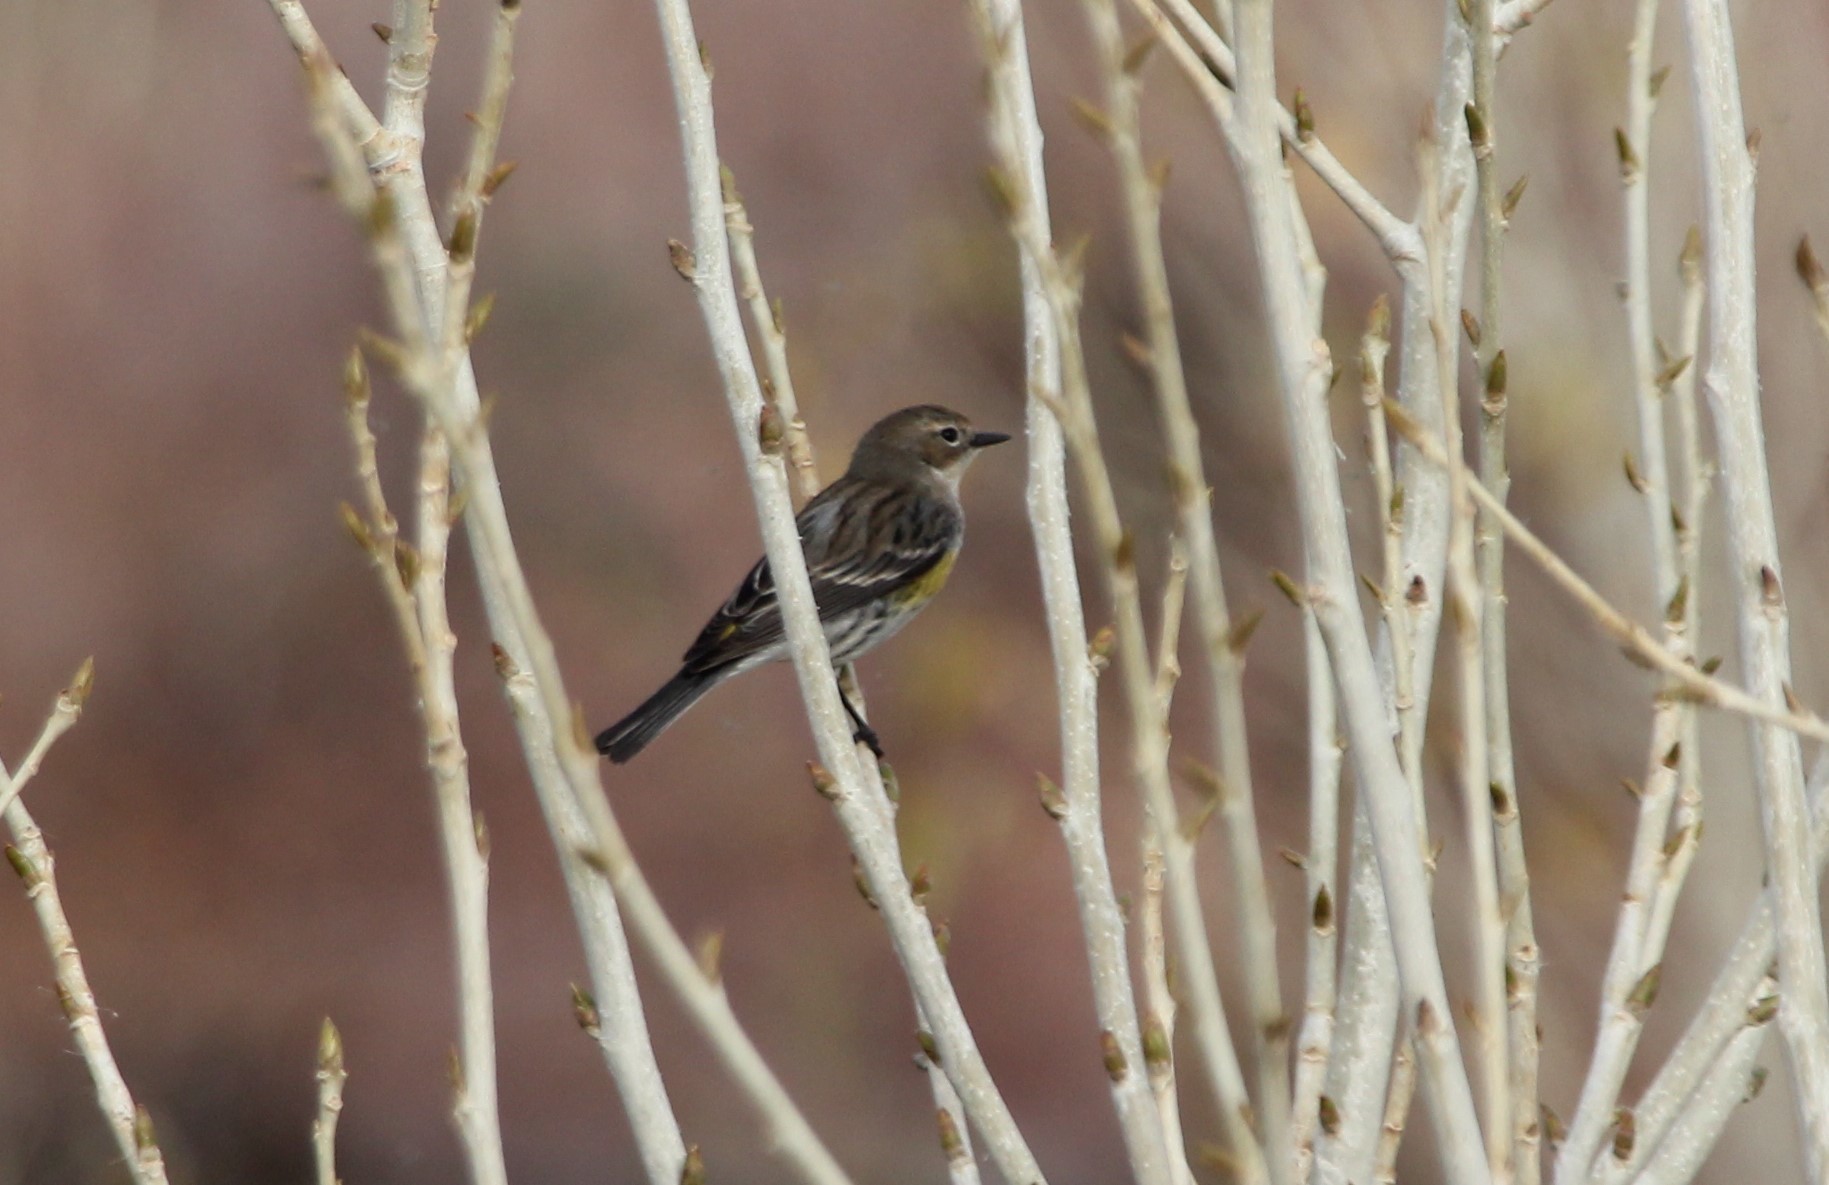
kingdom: Animalia
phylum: Chordata
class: Aves
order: Passeriformes
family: Parulidae
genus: Setophaga
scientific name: Setophaga coronata
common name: Myrtle warbler
